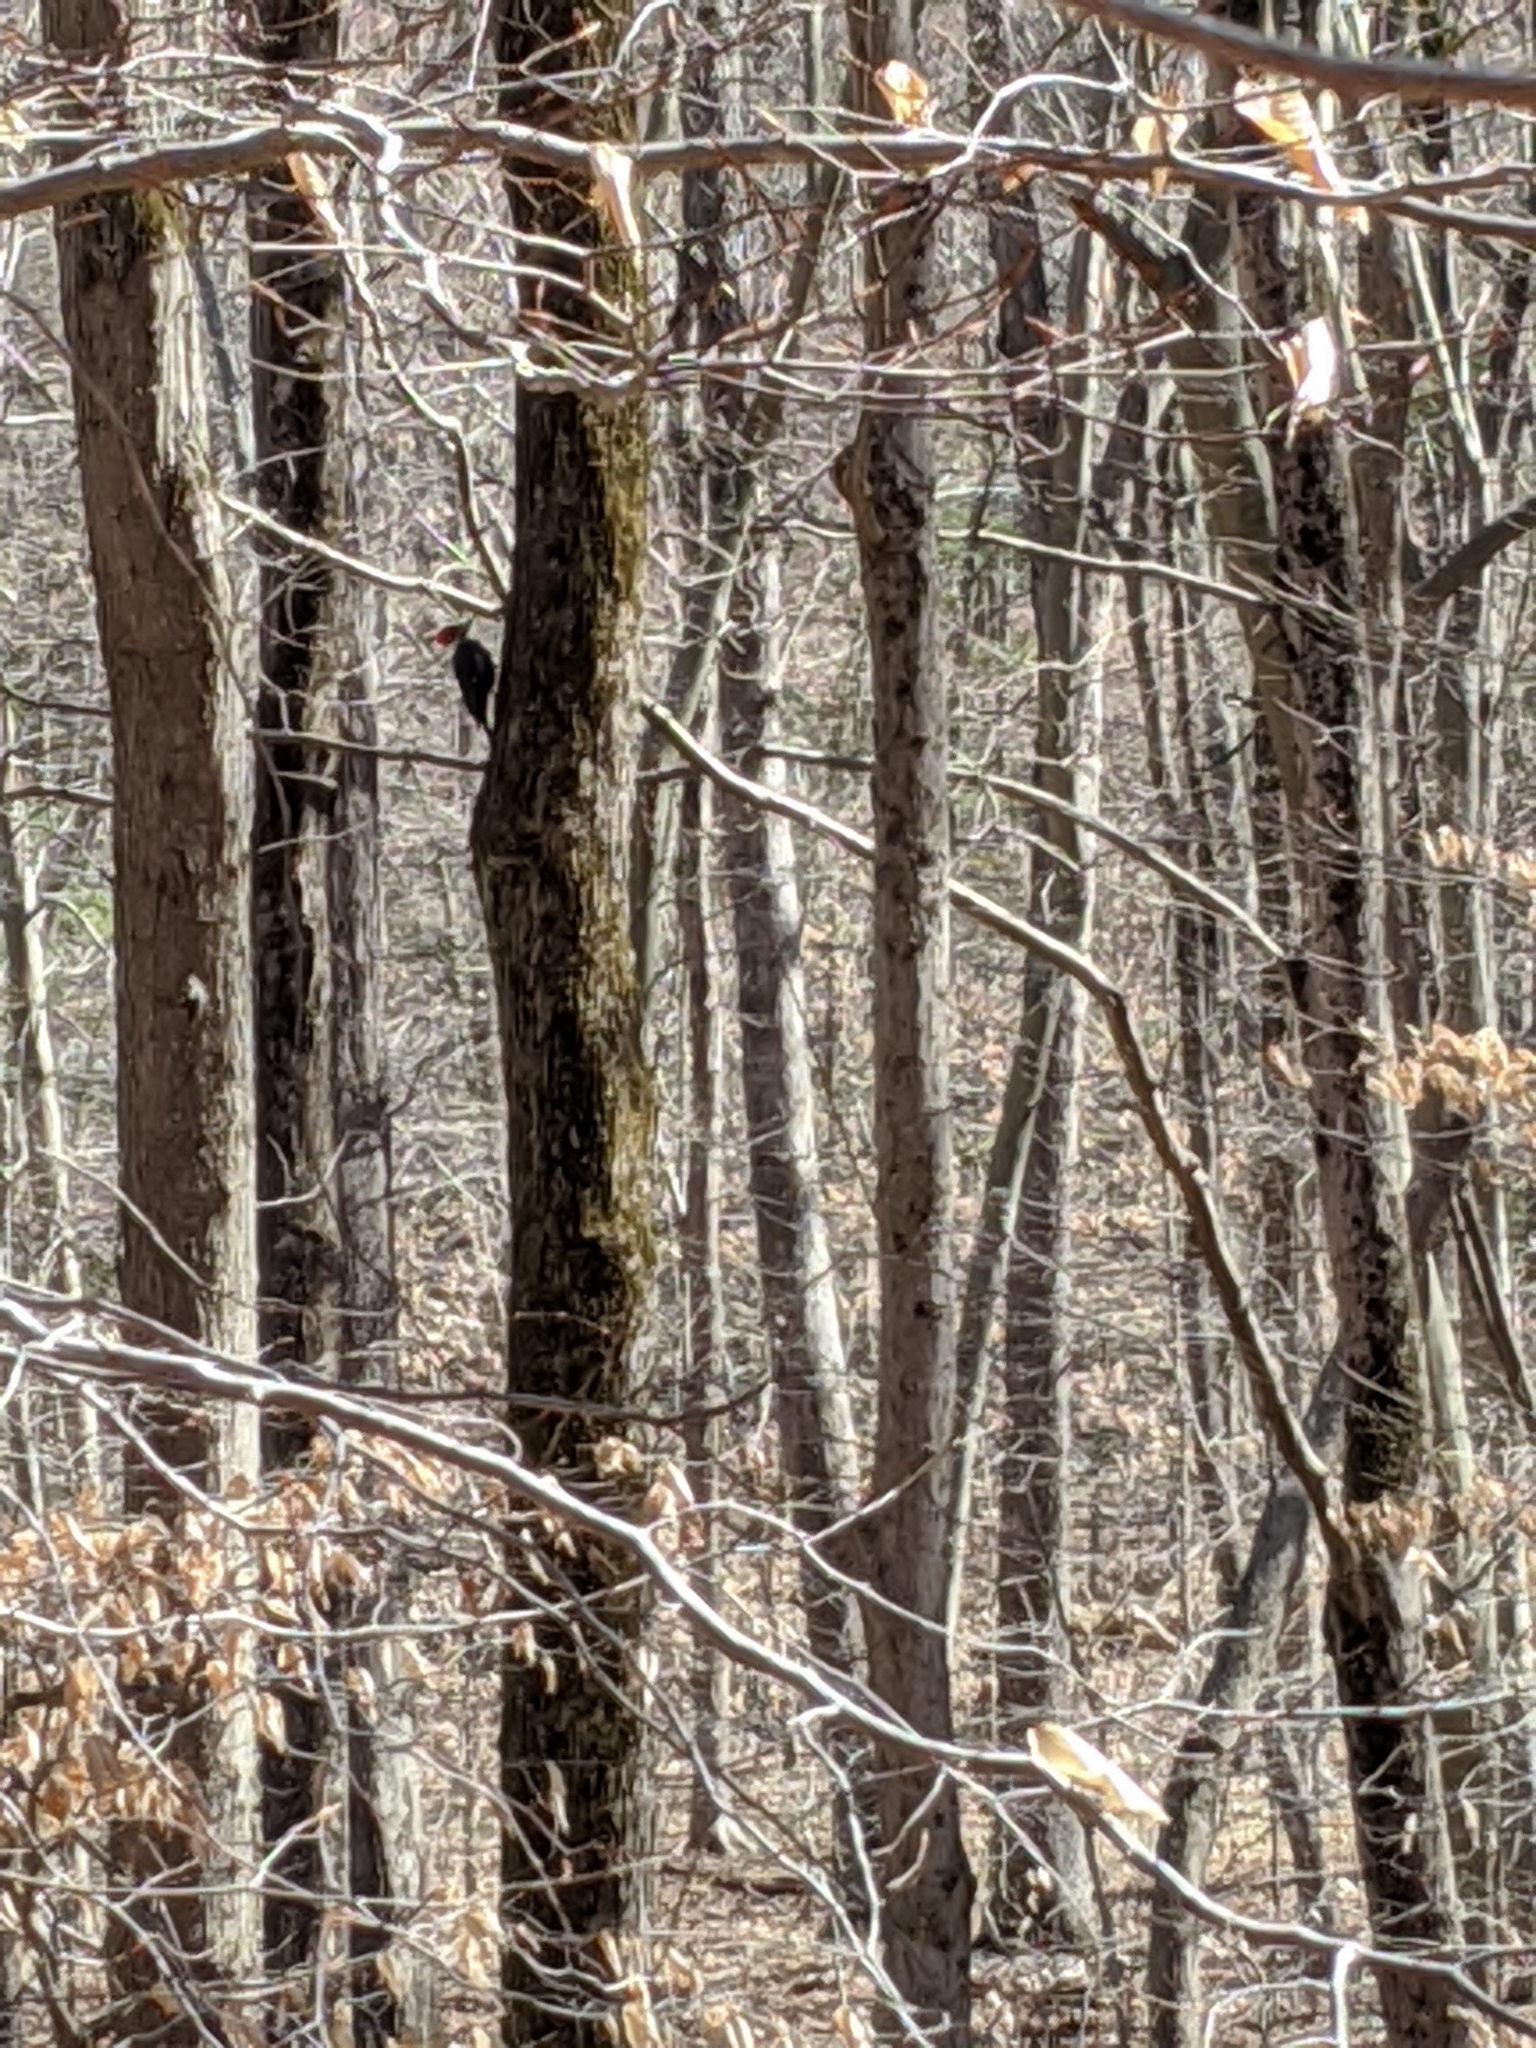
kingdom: Animalia
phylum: Chordata
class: Aves
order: Piciformes
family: Picidae
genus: Dryocopus
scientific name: Dryocopus pileatus
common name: Pileated woodpecker
